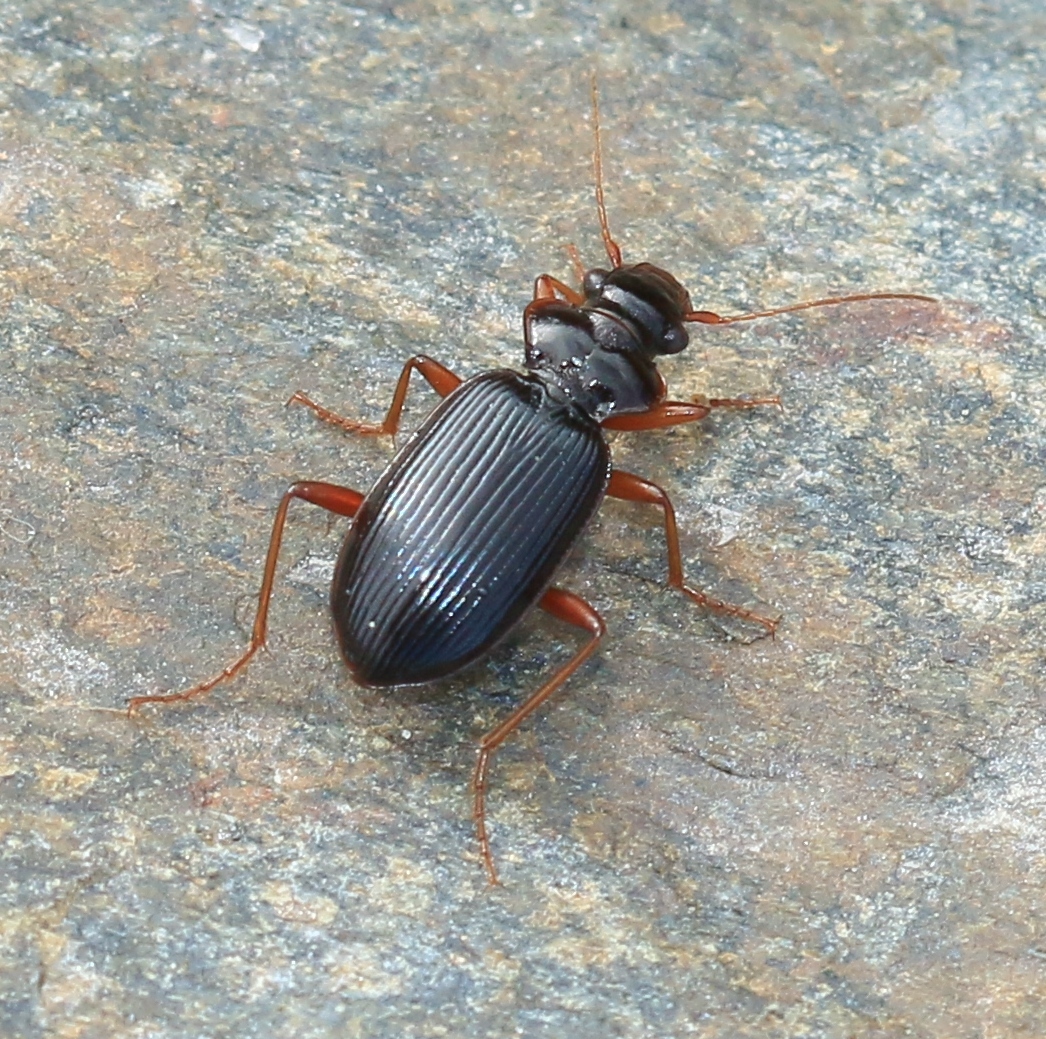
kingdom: Animalia
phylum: Arthropoda
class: Insecta
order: Coleoptera
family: Carabidae
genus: Leistus
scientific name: Leistus rufomarginatus
